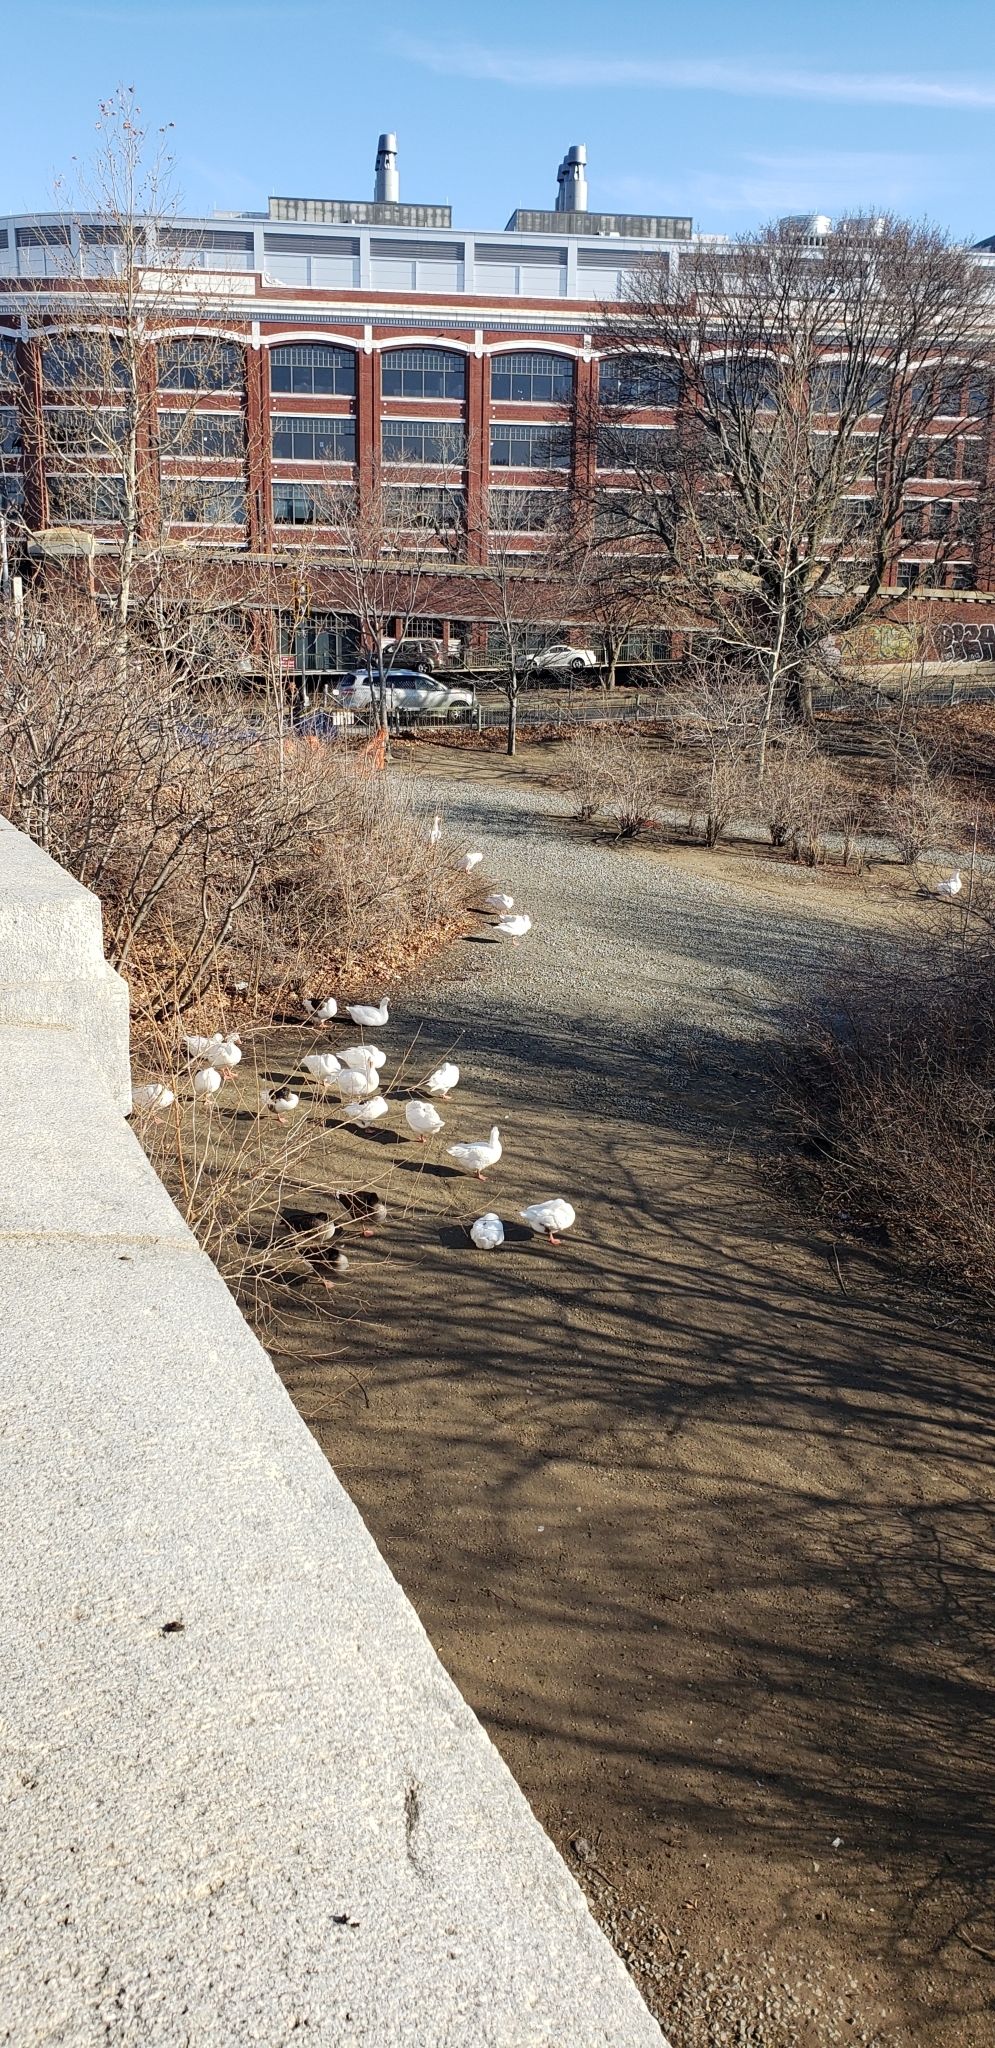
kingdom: Animalia
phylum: Chordata
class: Aves
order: Anseriformes
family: Anatidae
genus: Anser
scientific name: Anser anser
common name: Greylag goose
